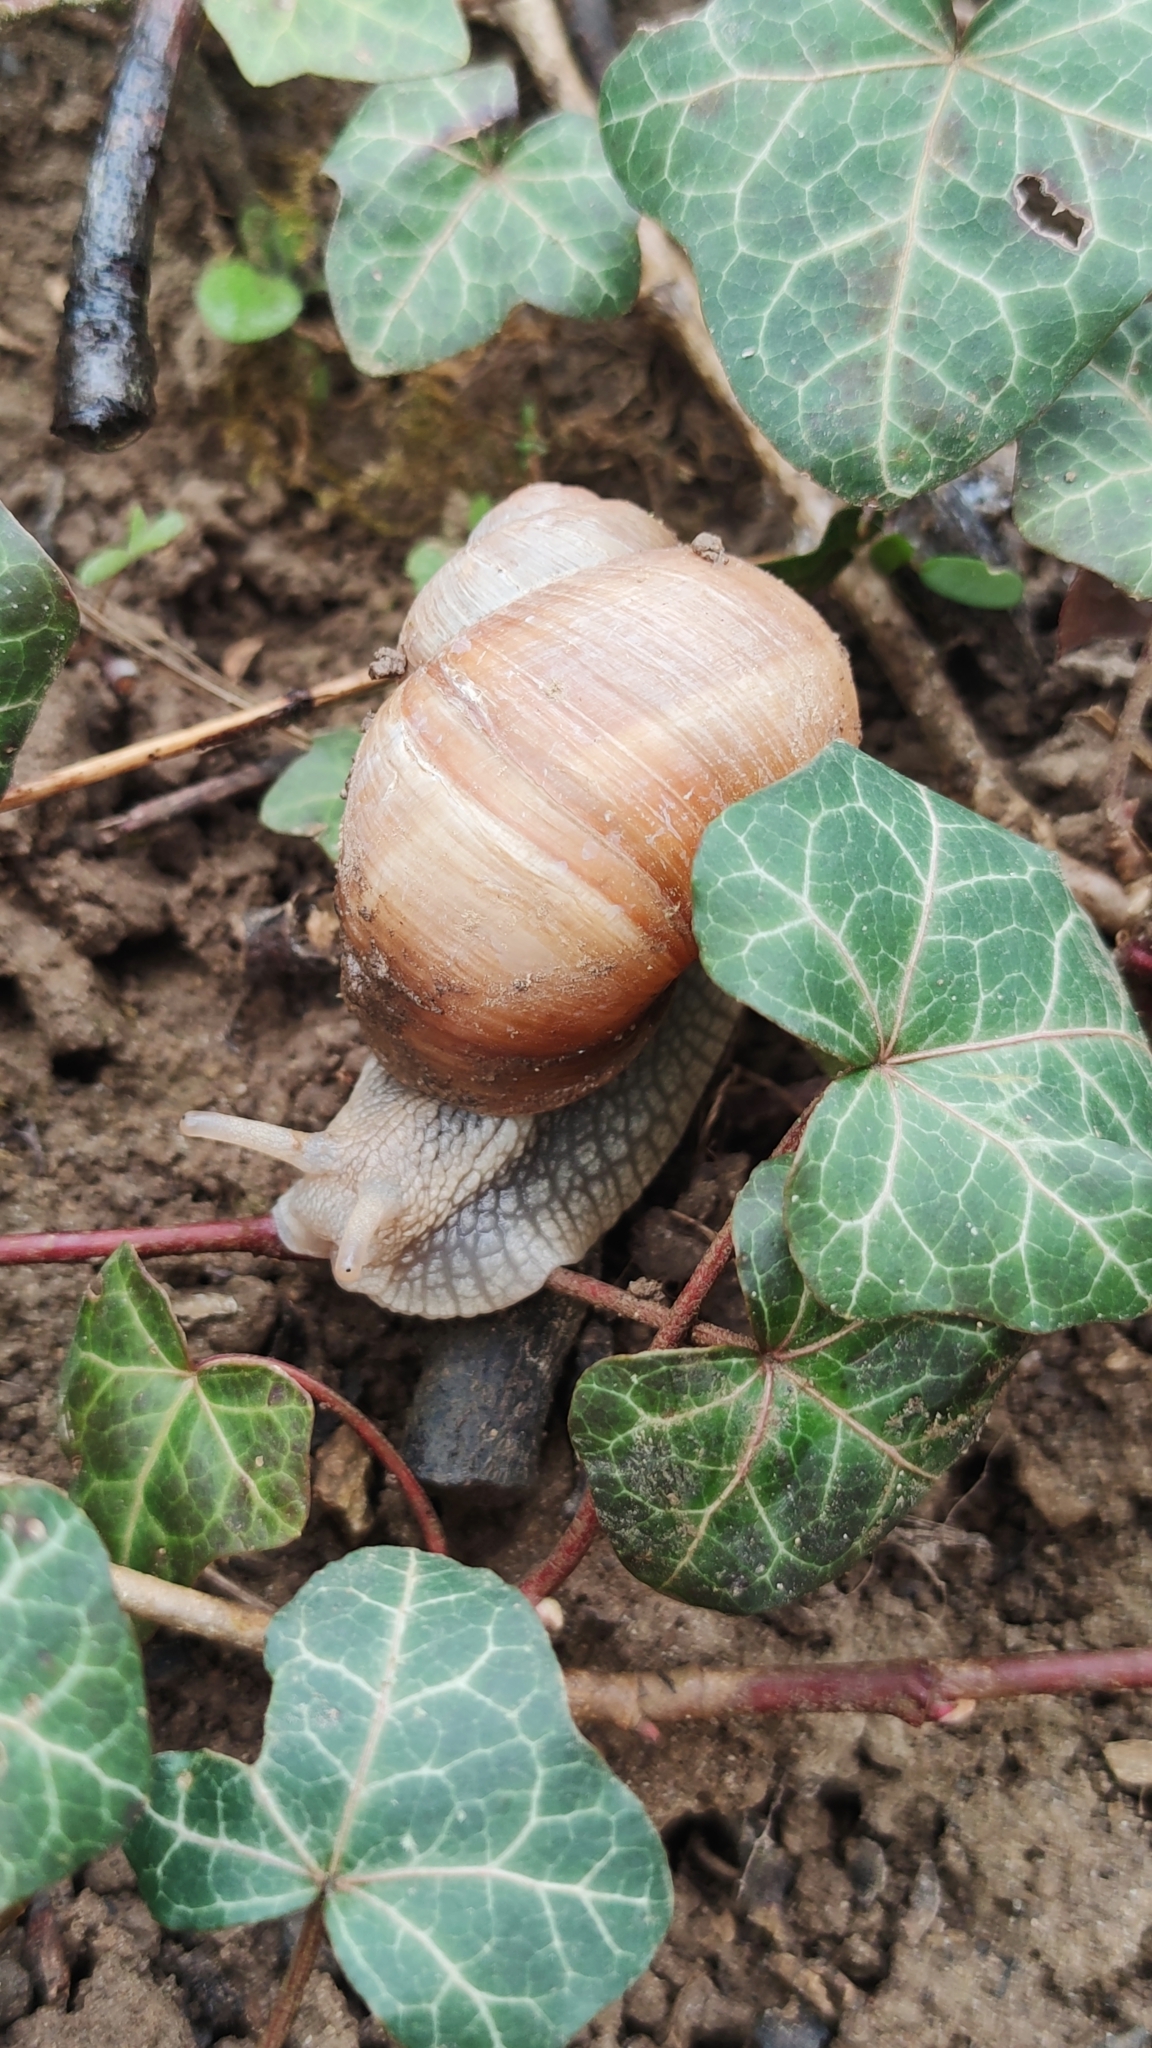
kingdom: Animalia
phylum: Mollusca
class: Gastropoda
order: Stylommatophora
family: Helicidae
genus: Helix
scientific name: Helix pomatia
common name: Roman snail
